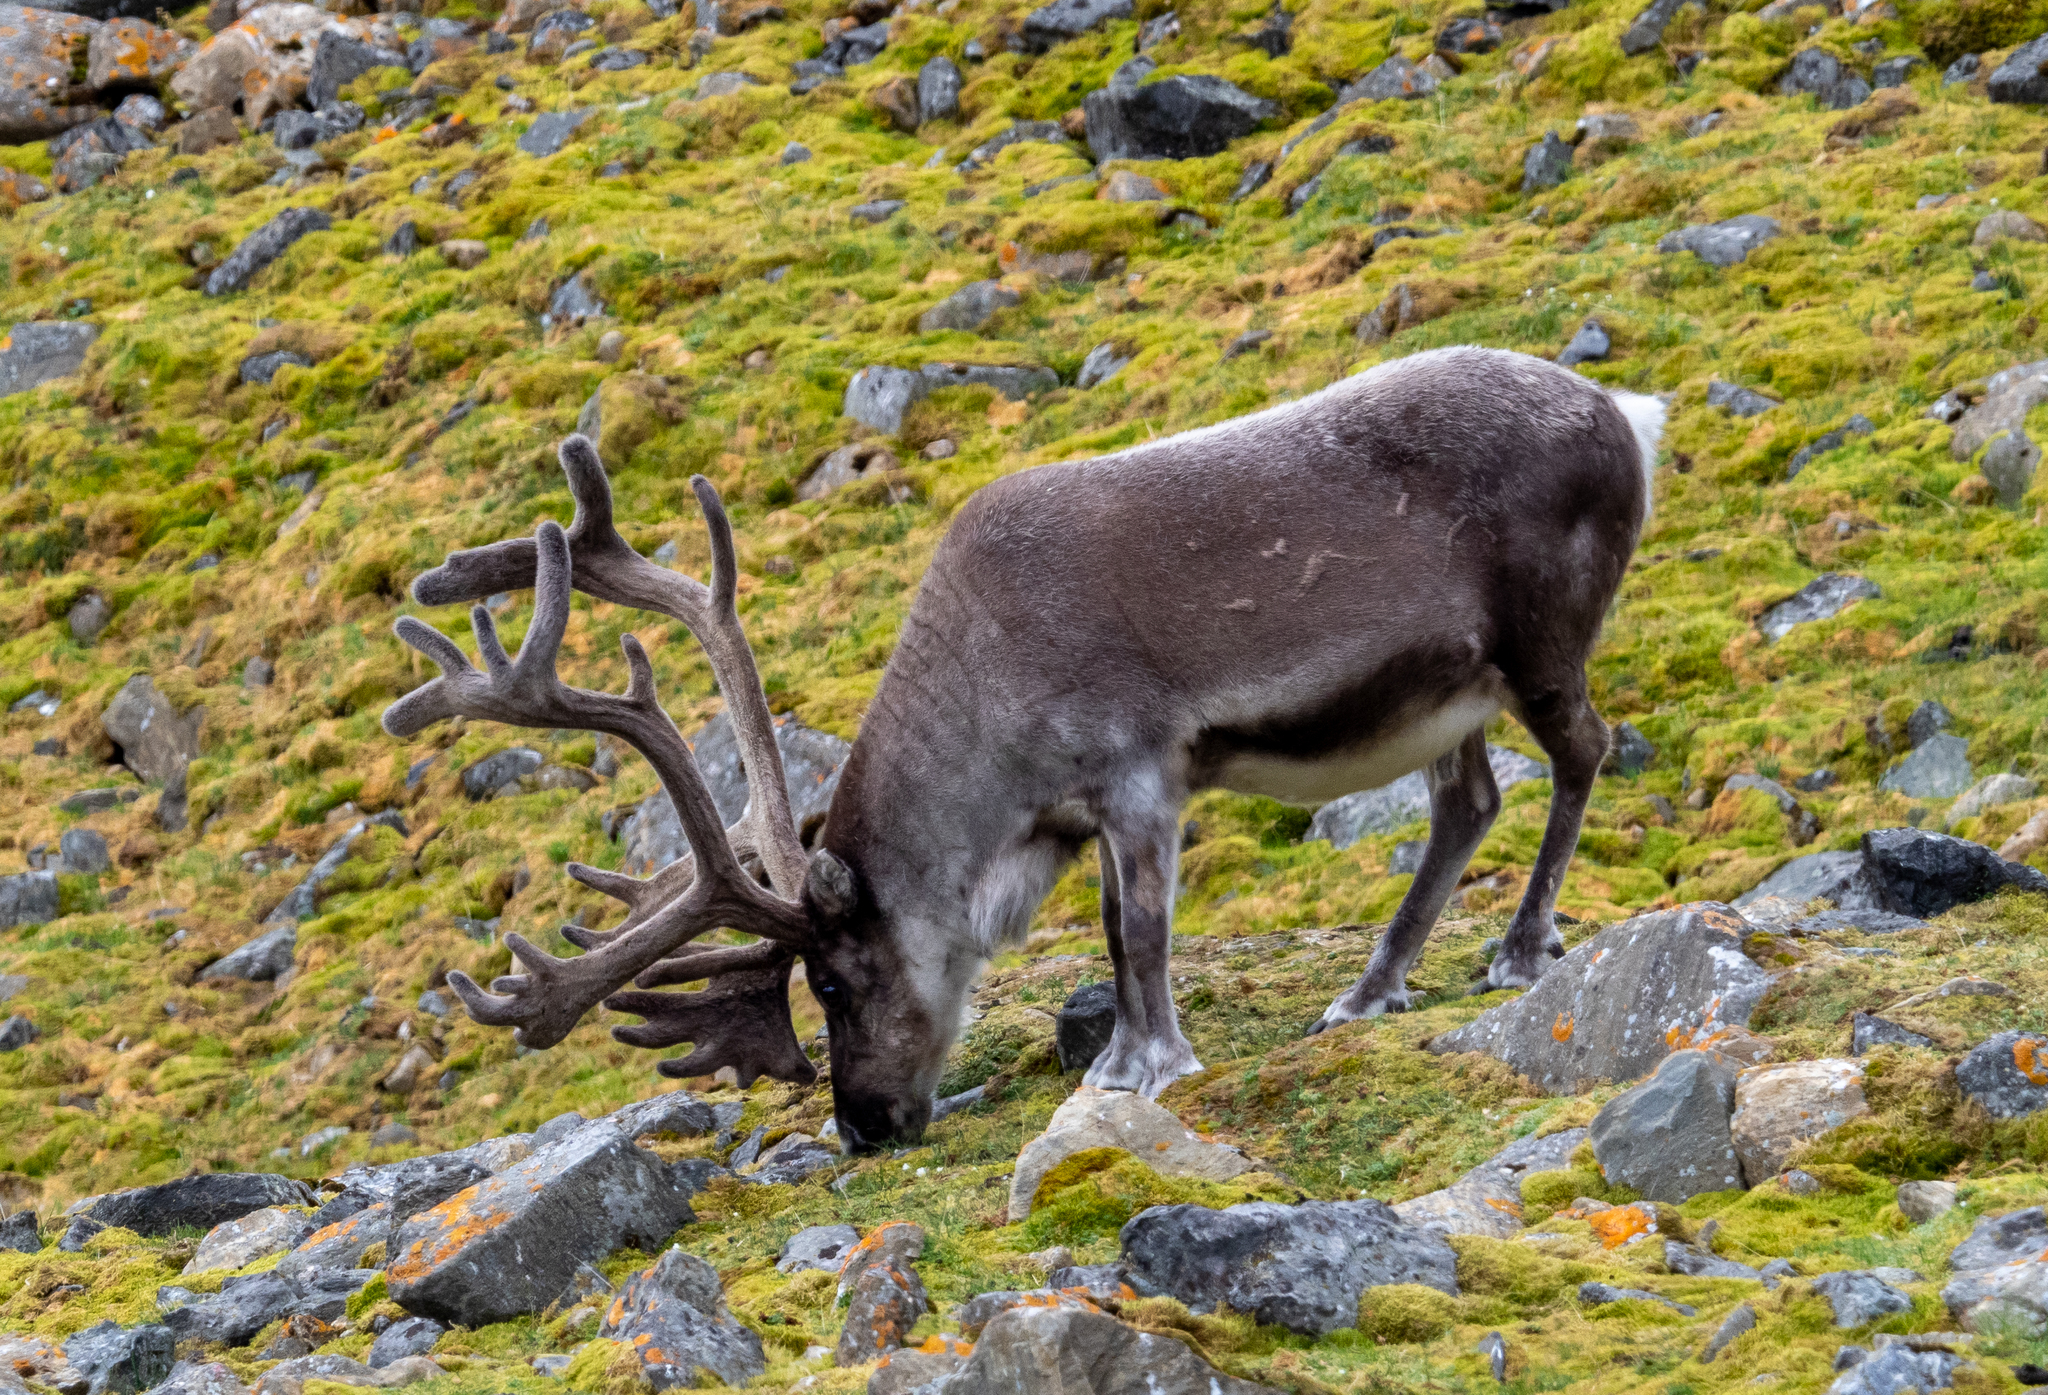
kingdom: Animalia
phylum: Chordata
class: Mammalia
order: Artiodactyla
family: Cervidae
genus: Rangifer
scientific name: Rangifer tarandus
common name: Reindeer
